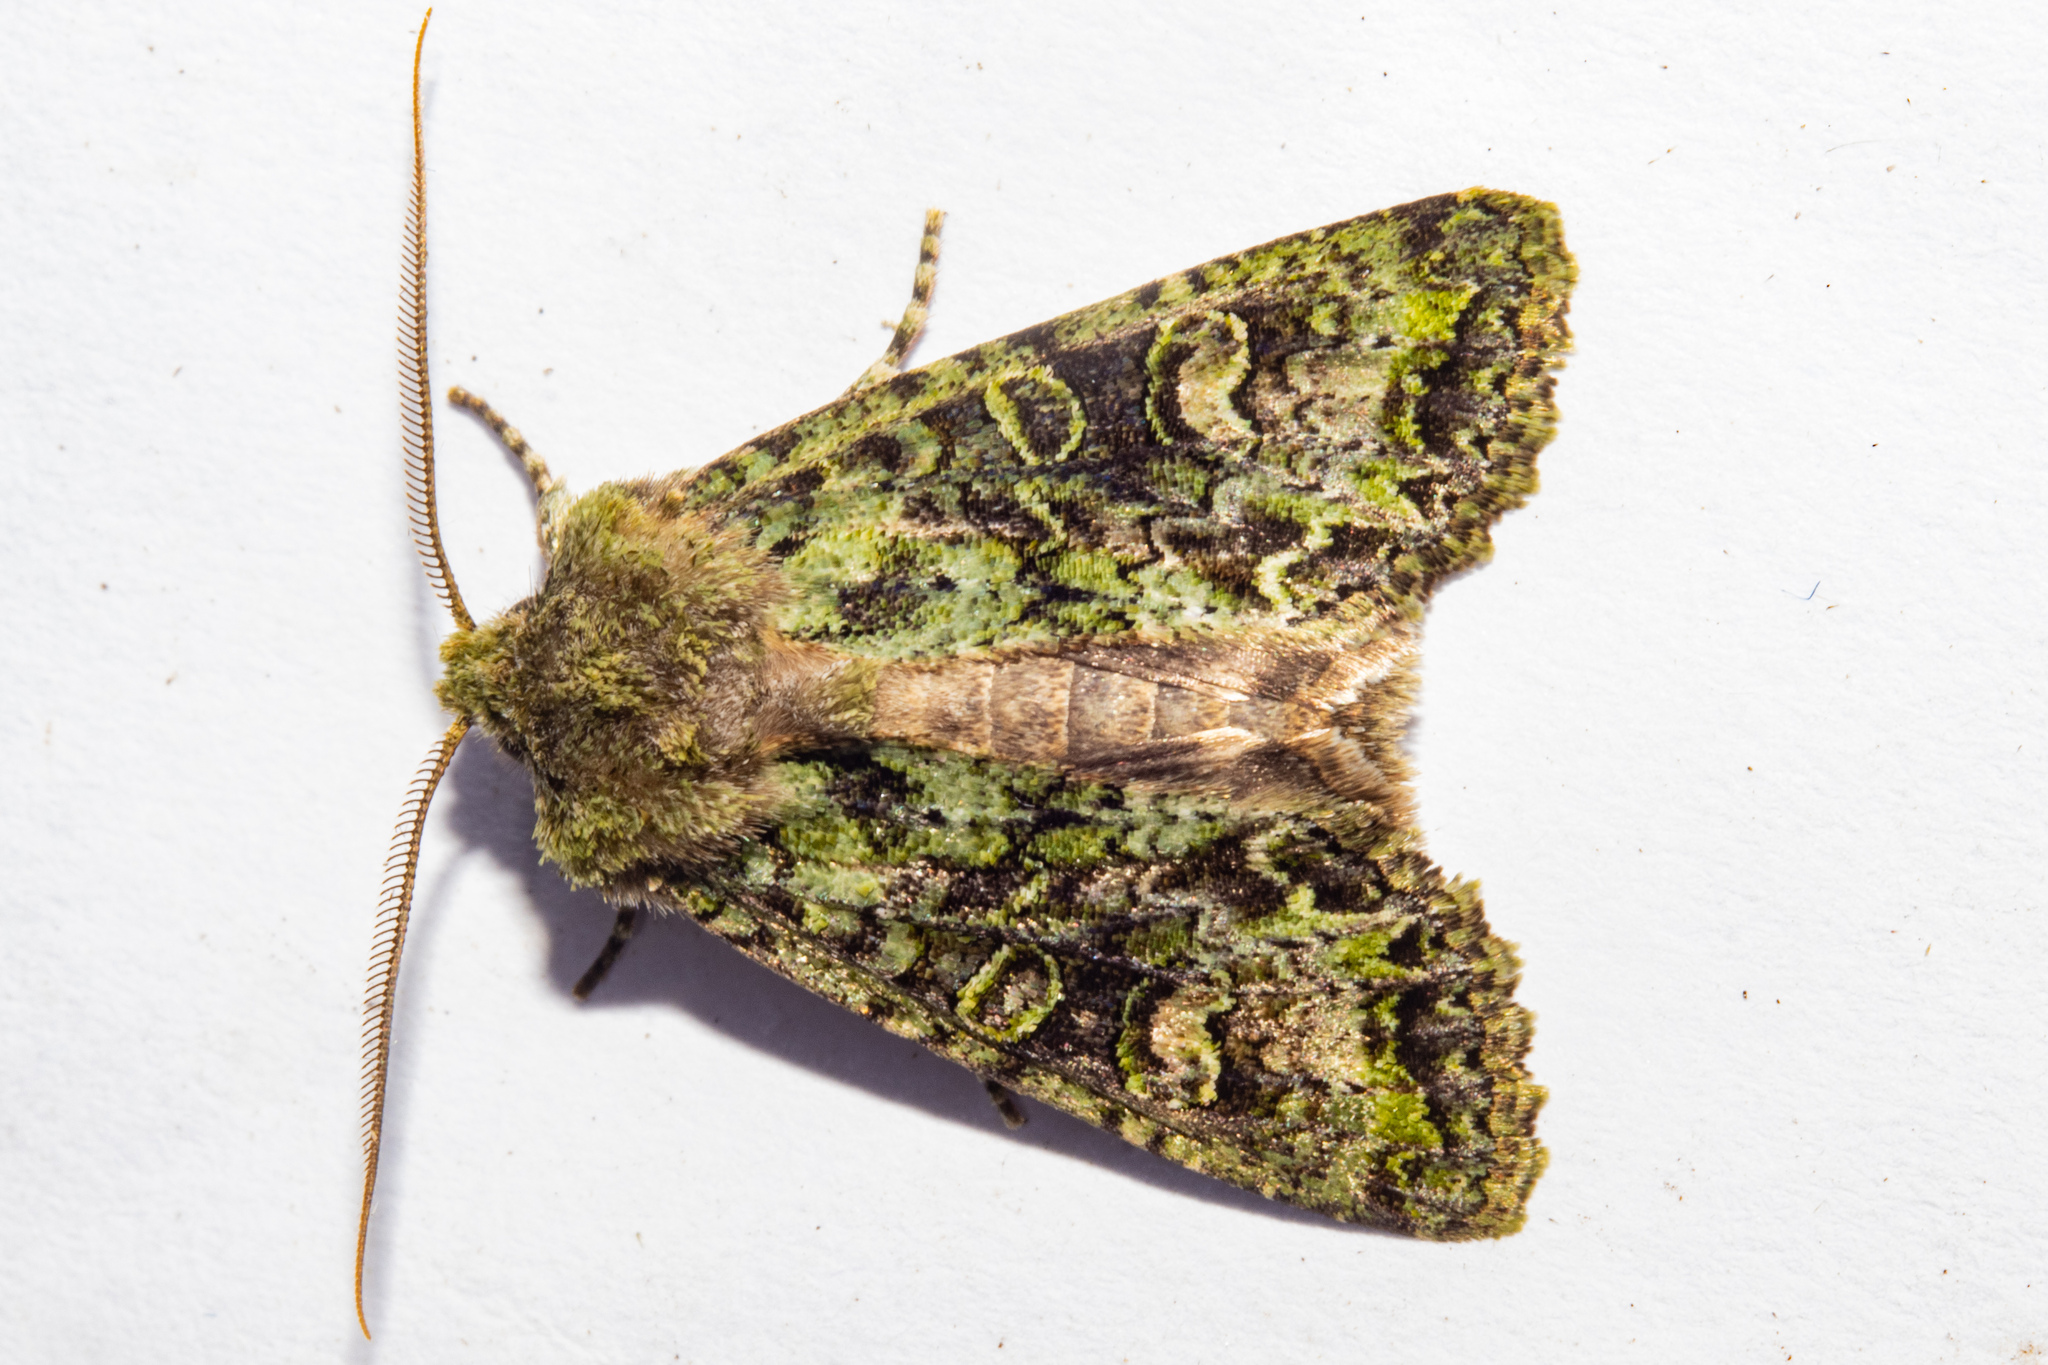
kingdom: Animalia
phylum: Arthropoda
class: Insecta
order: Lepidoptera
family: Noctuidae
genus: Ichneutica
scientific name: Ichneutica
